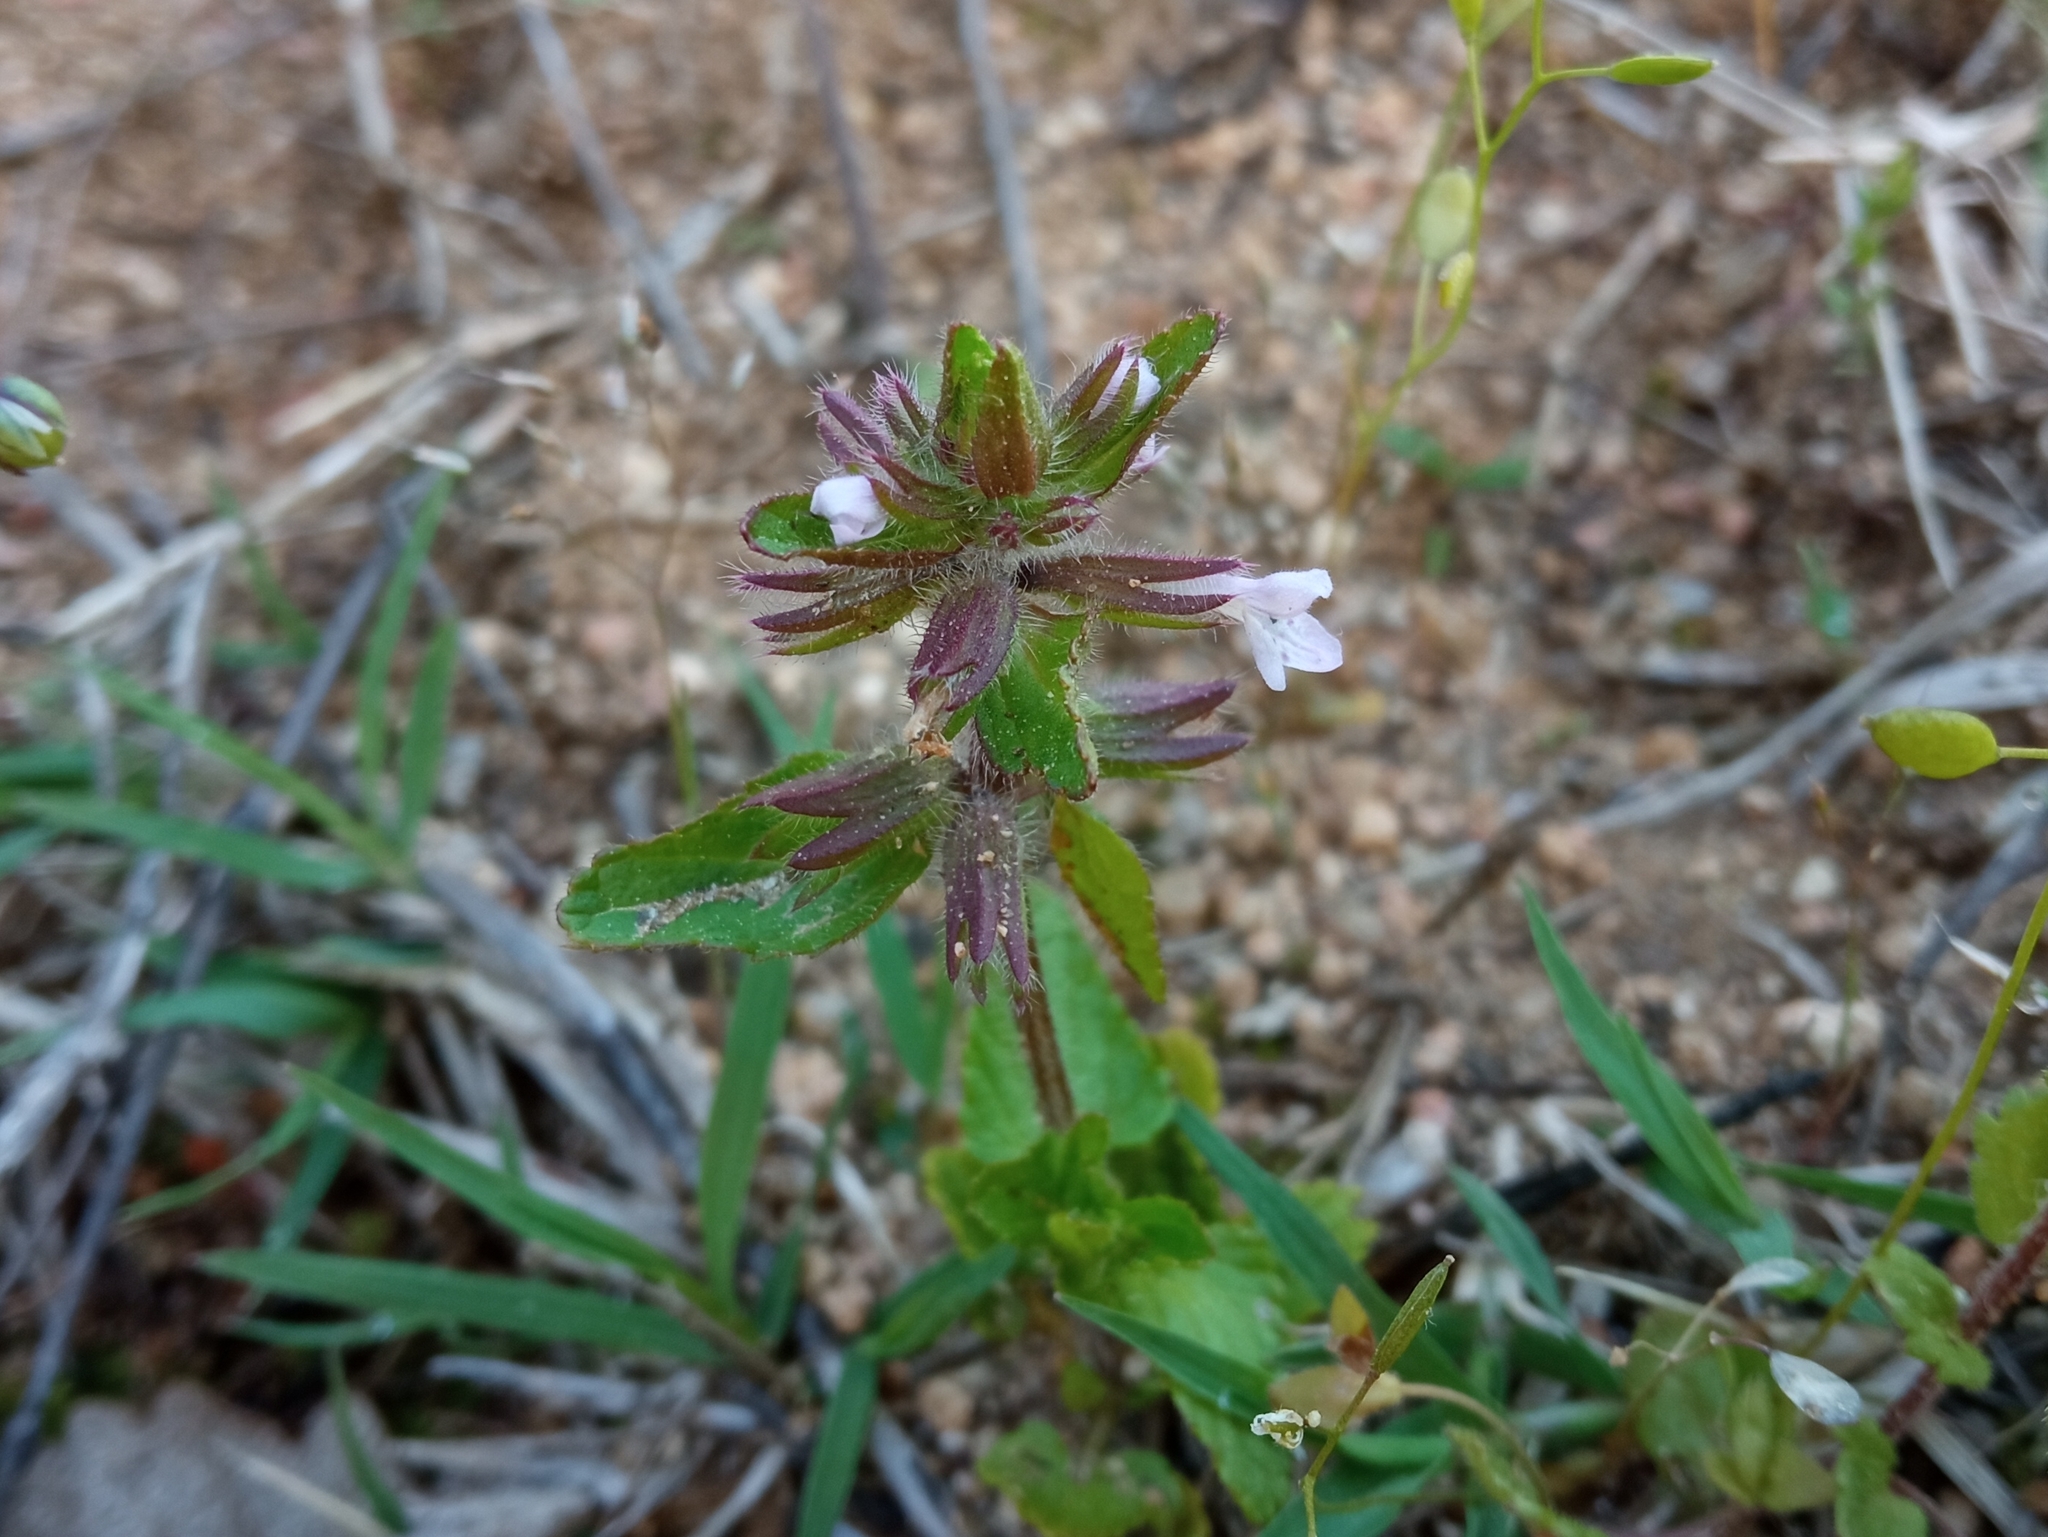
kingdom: Plantae
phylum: Tracheophyta
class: Magnoliopsida
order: Lamiales
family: Lamiaceae
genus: Stachys
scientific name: Stachys arvensis
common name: Field woundwort
